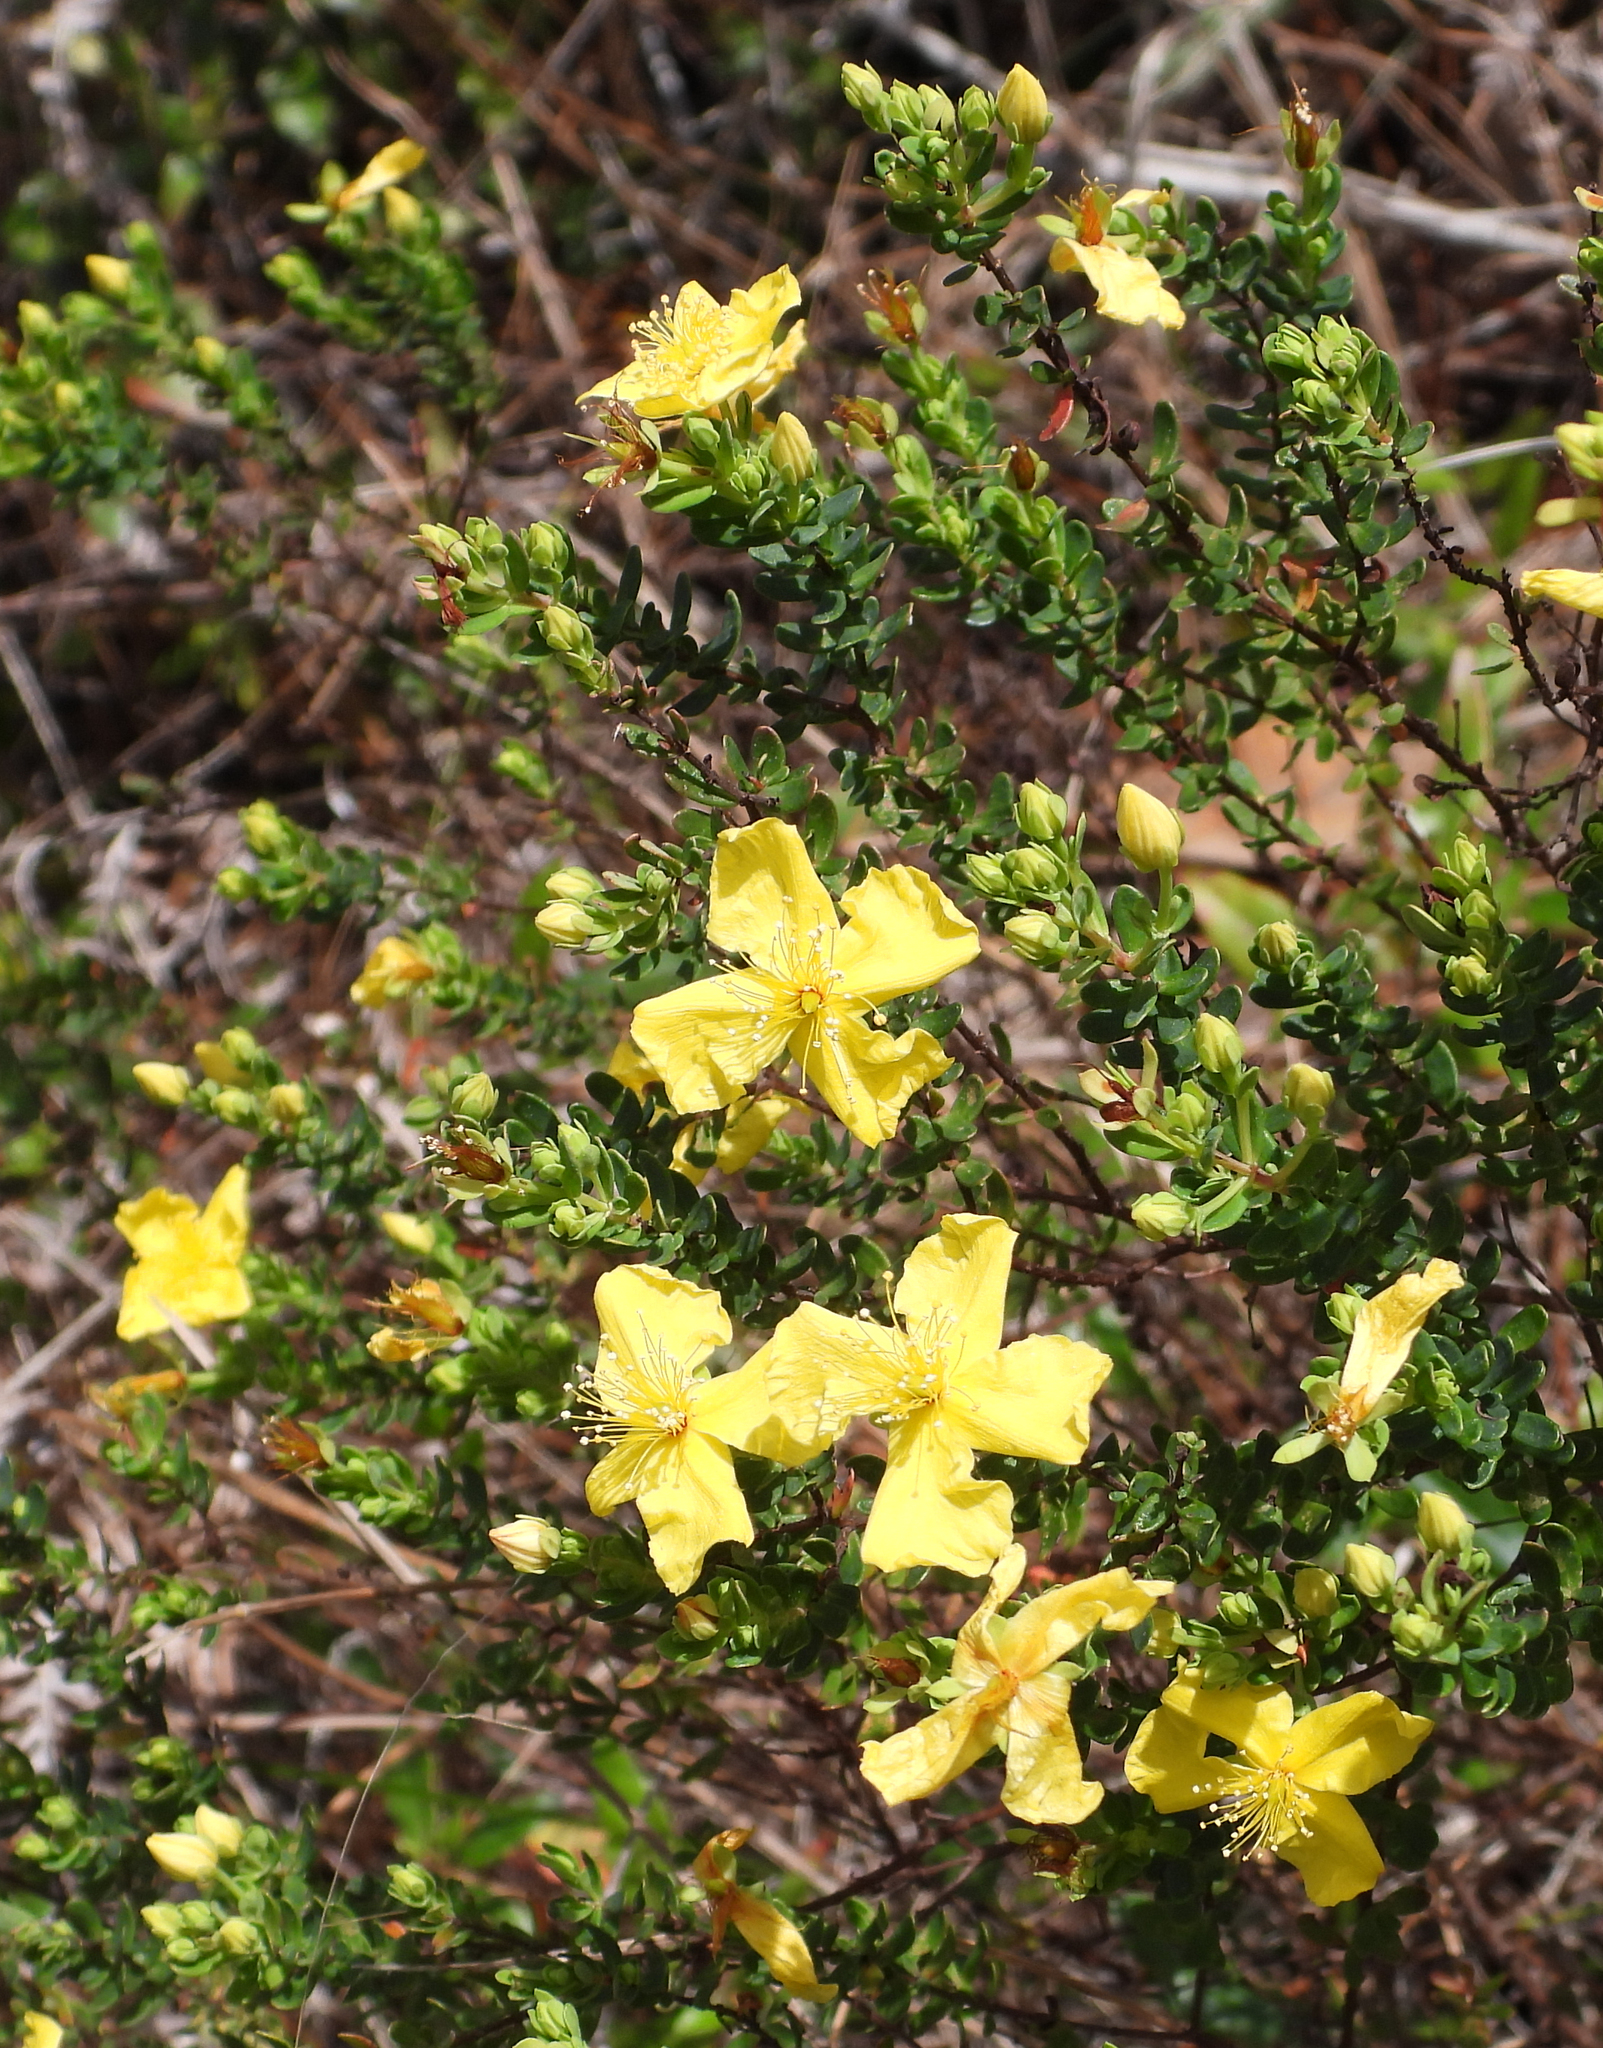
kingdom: Plantae
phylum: Tracheophyta
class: Magnoliopsida
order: Malpighiales
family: Hypericaceae
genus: Hypericum
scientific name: Hypericum microsepalum
